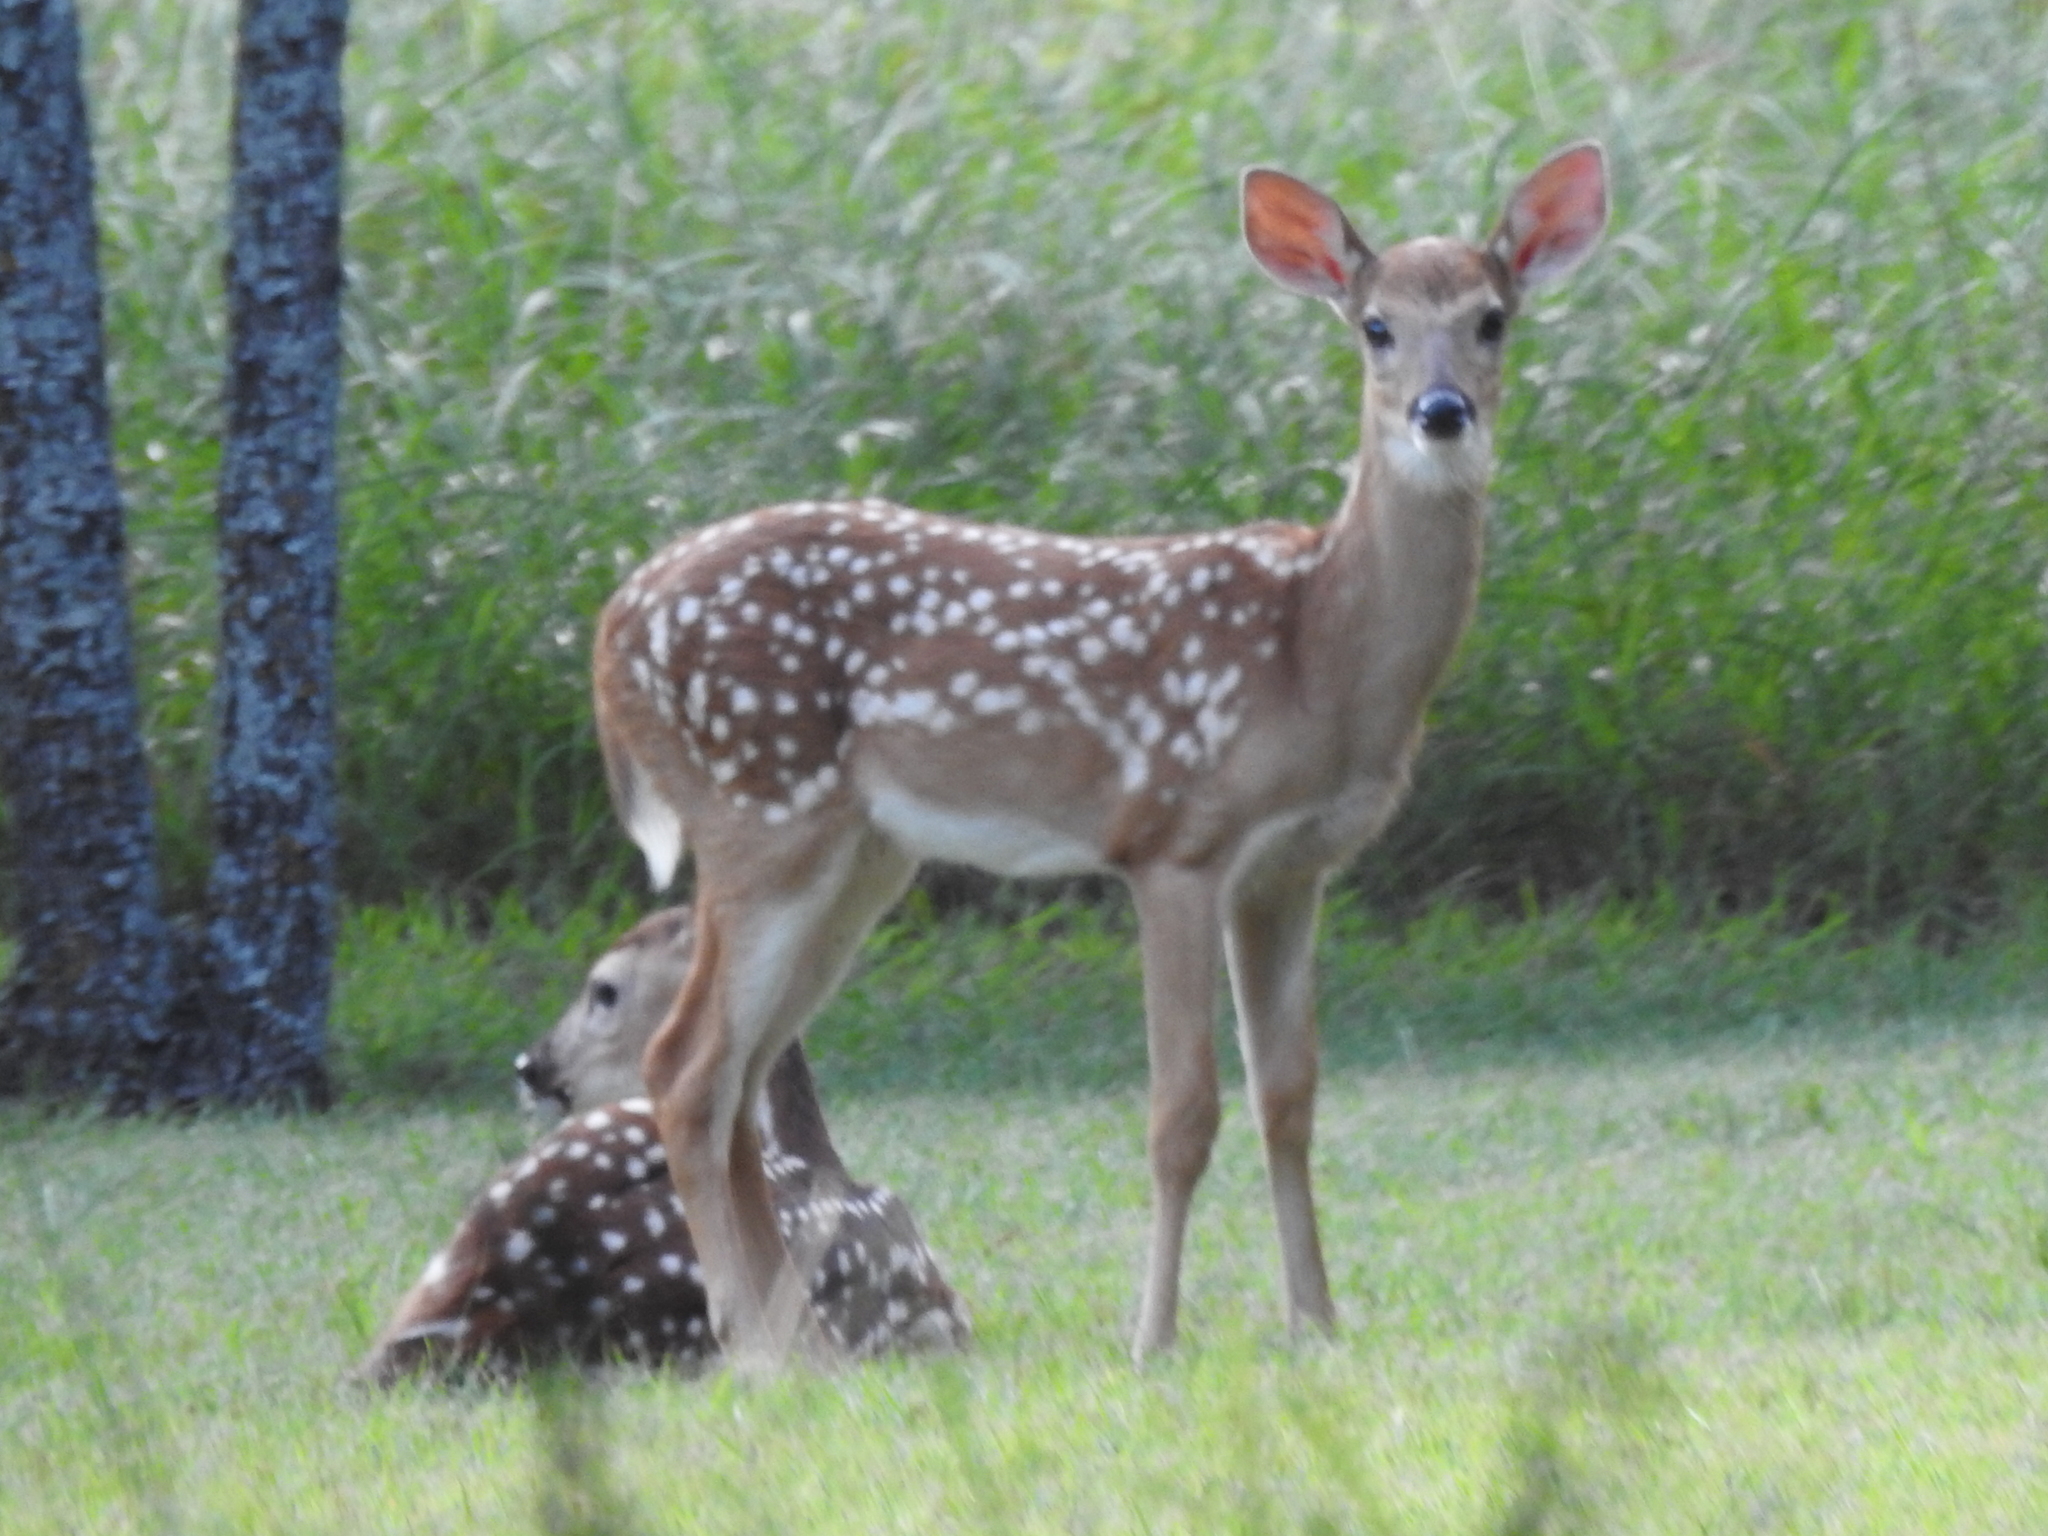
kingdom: Animalia
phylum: Chordata
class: Mammalia
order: Artiodactyla
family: Cervidae
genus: Odocoileus
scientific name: Odocoileus virginianus
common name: White-tailed deer
